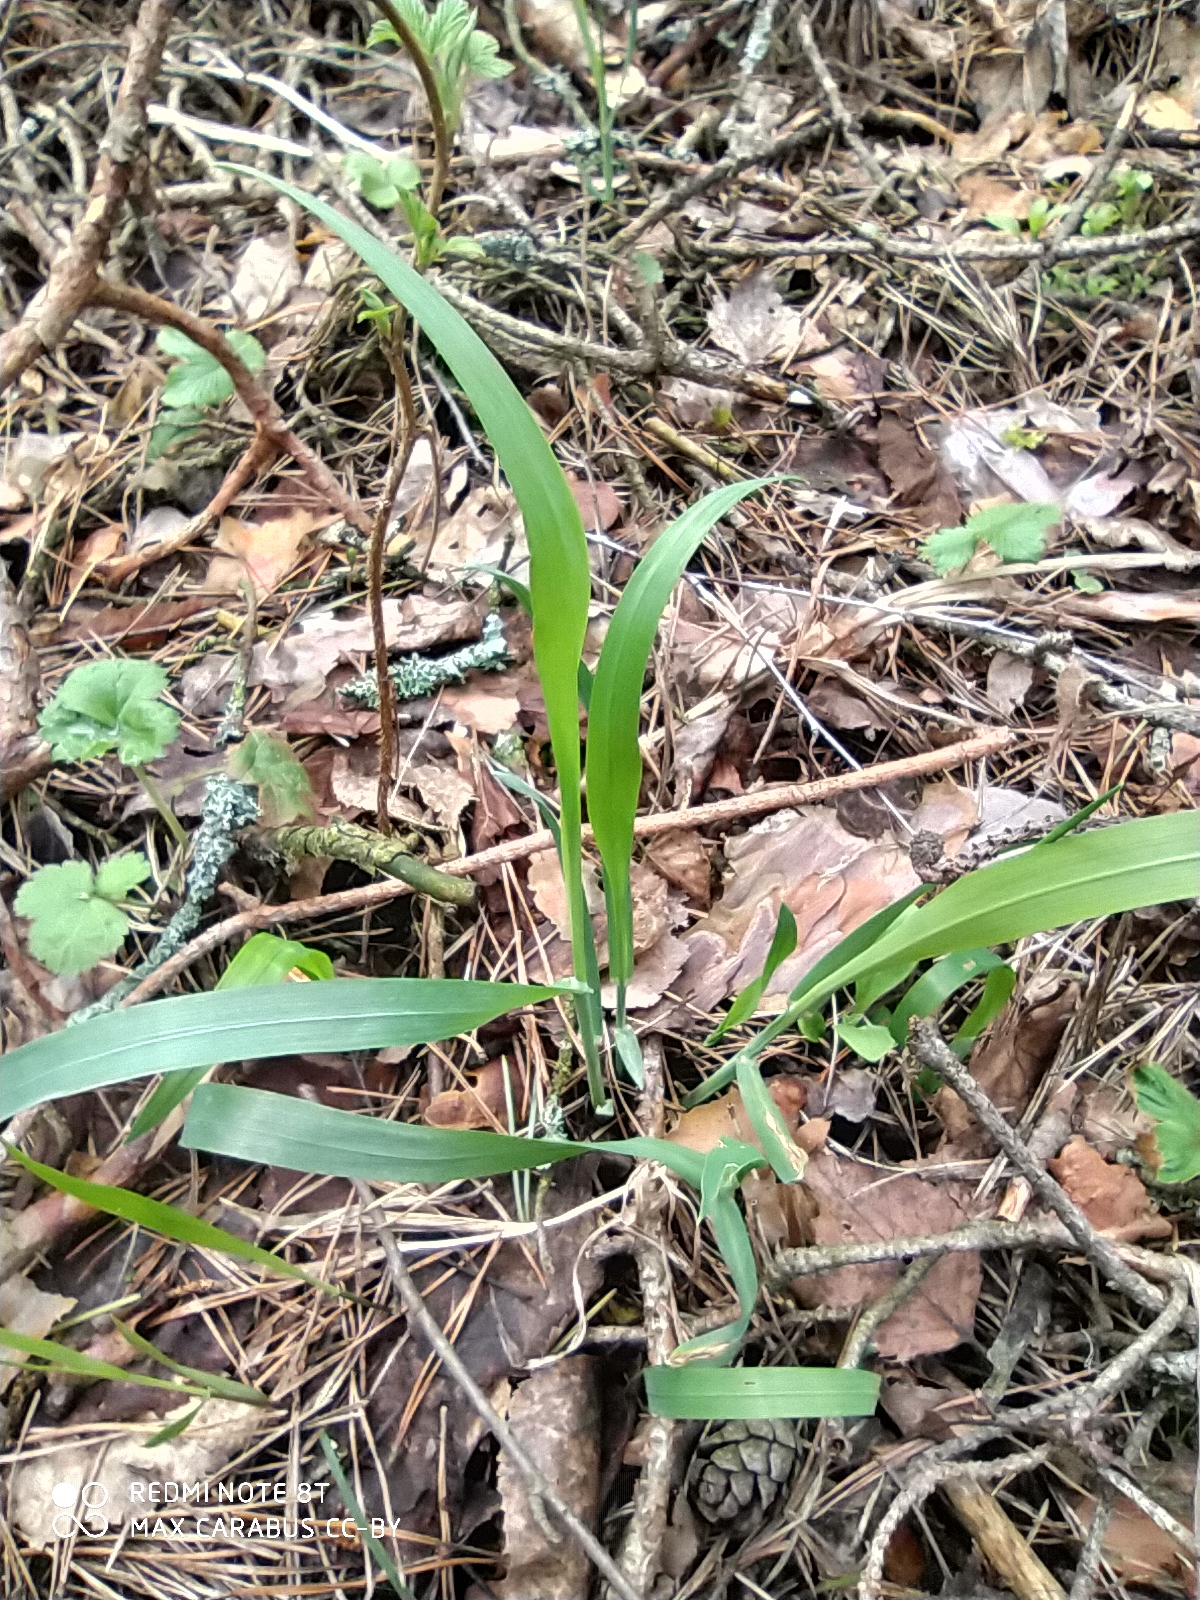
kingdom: Plantae
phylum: Tracheophyta
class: Liliopsida
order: Poales
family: Poaceae
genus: Milium
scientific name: Milium effusum
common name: Wood millet
